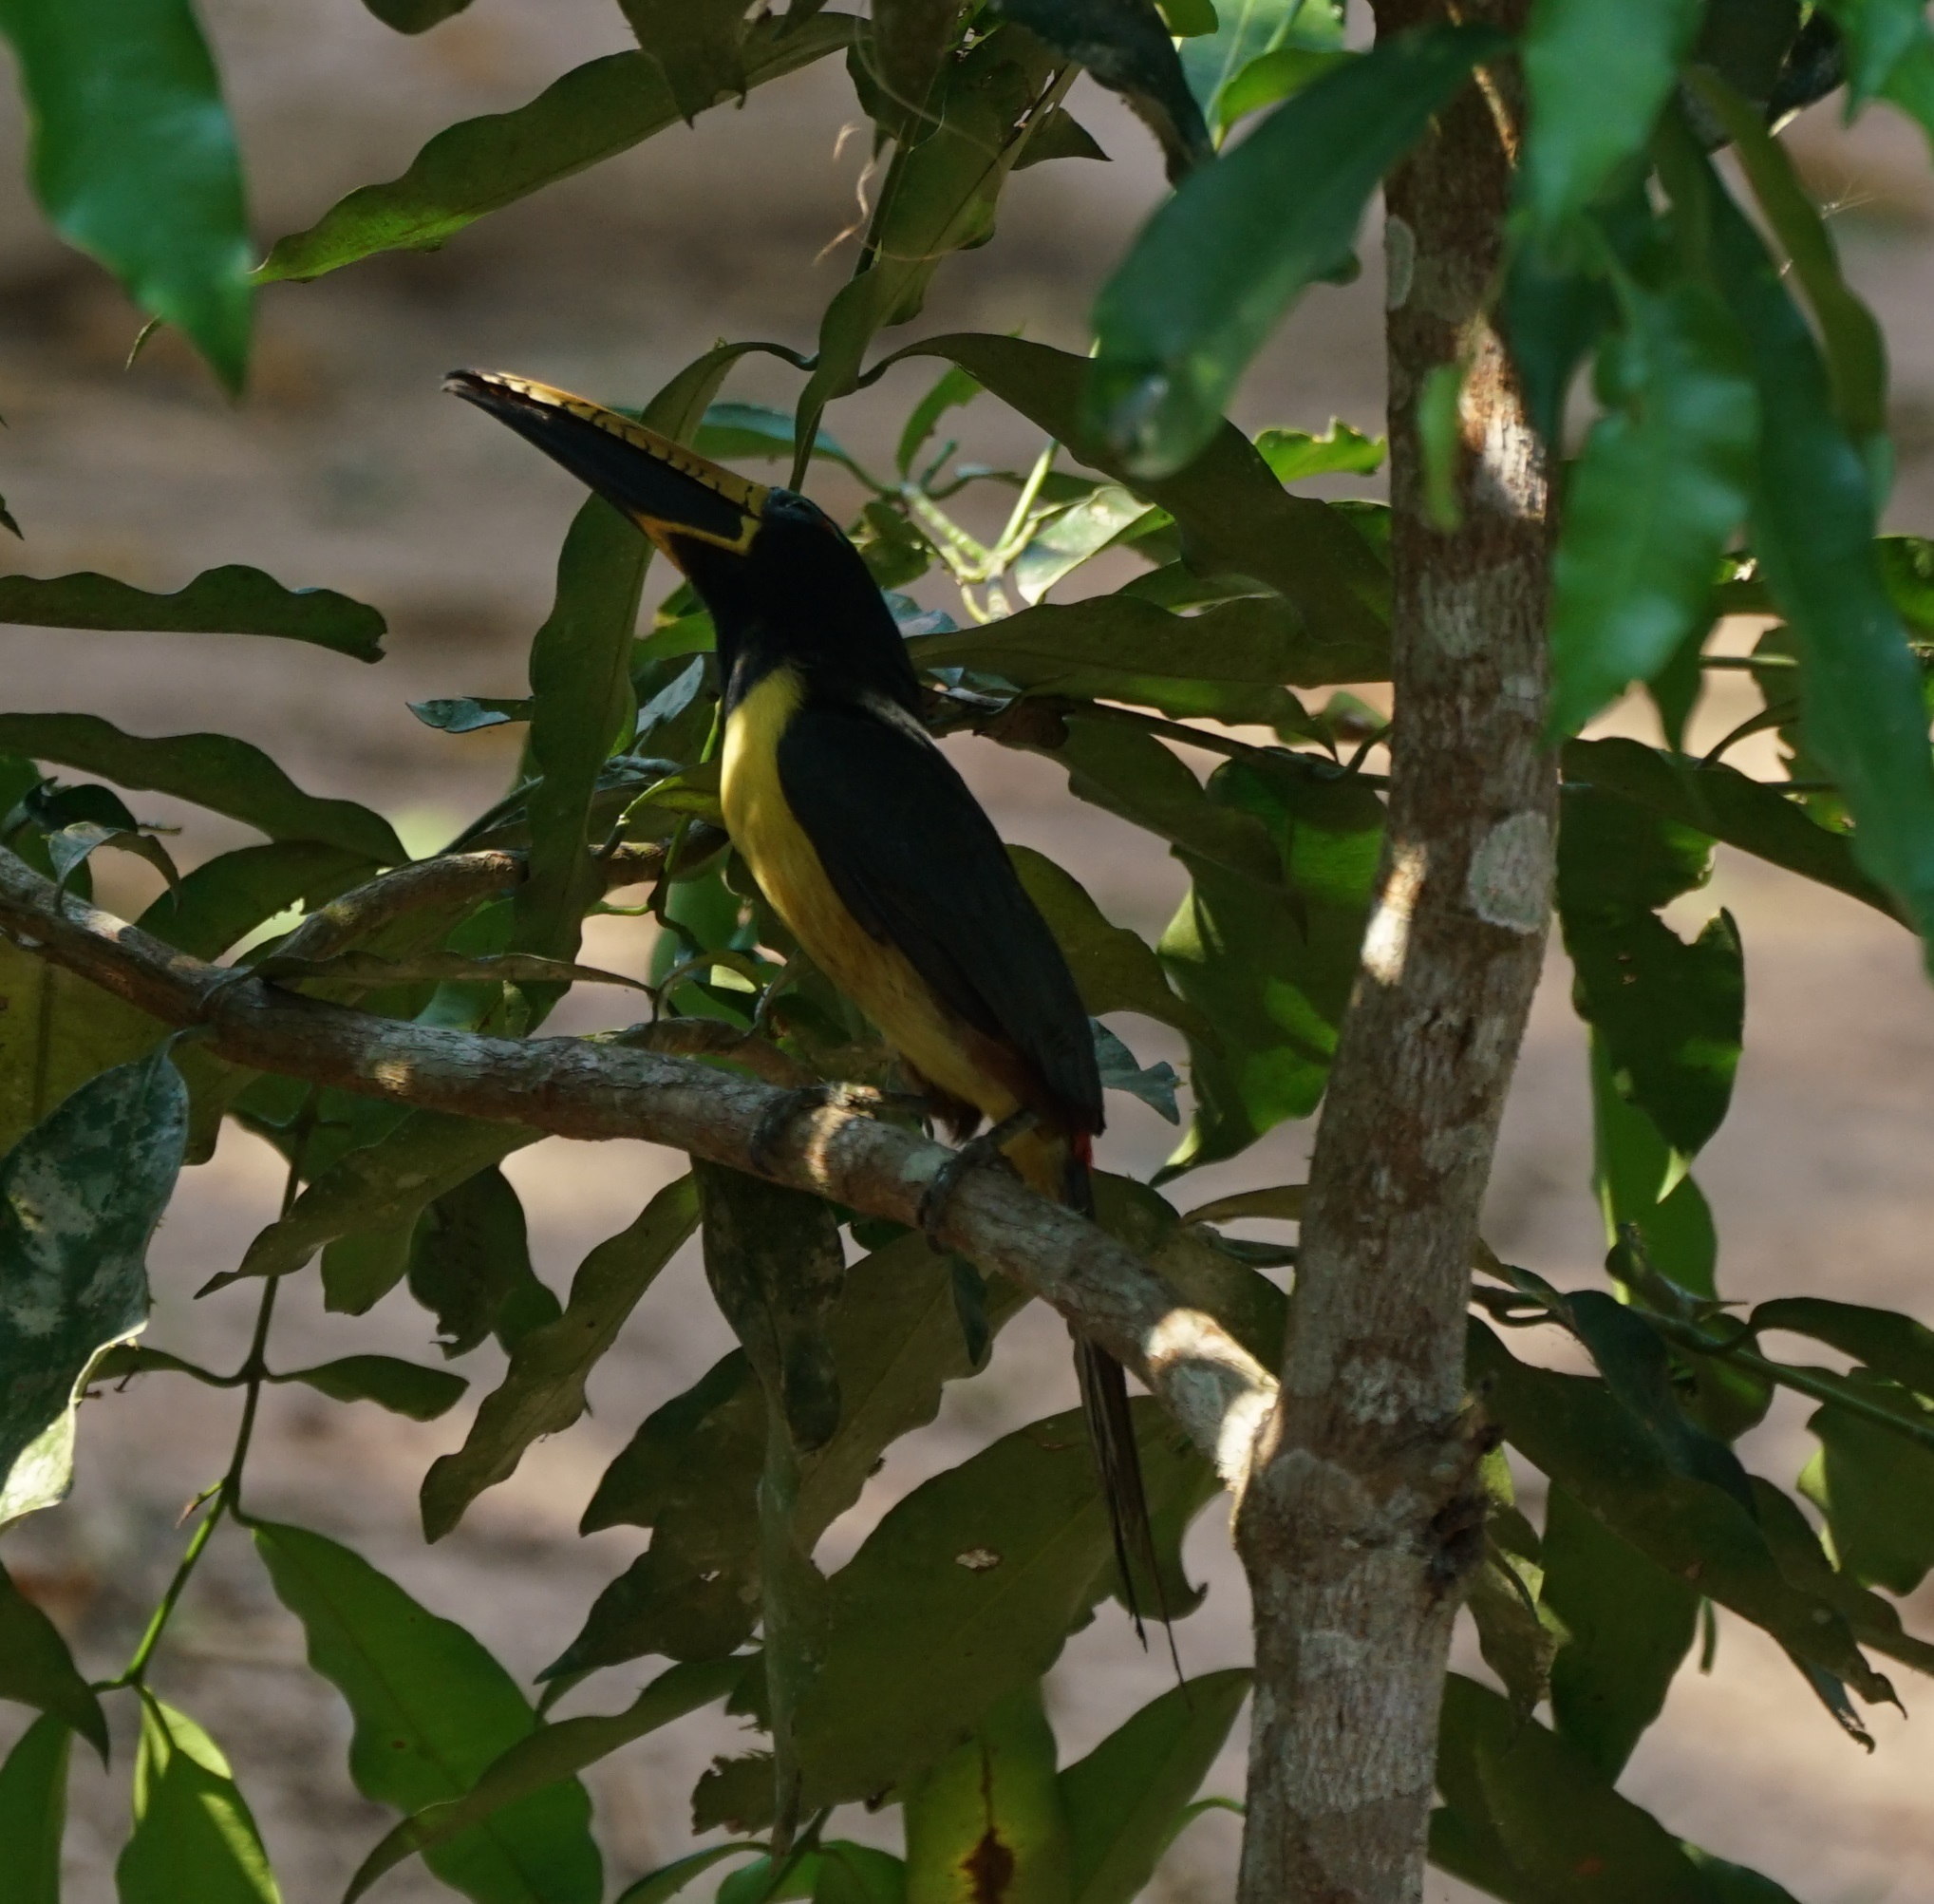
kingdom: Animalia
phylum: Chordata
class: Aves
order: Piciformes
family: Ramphastidae
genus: Pteroglossus
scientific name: Pteroglossus inscriptus
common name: Lettered aracari
